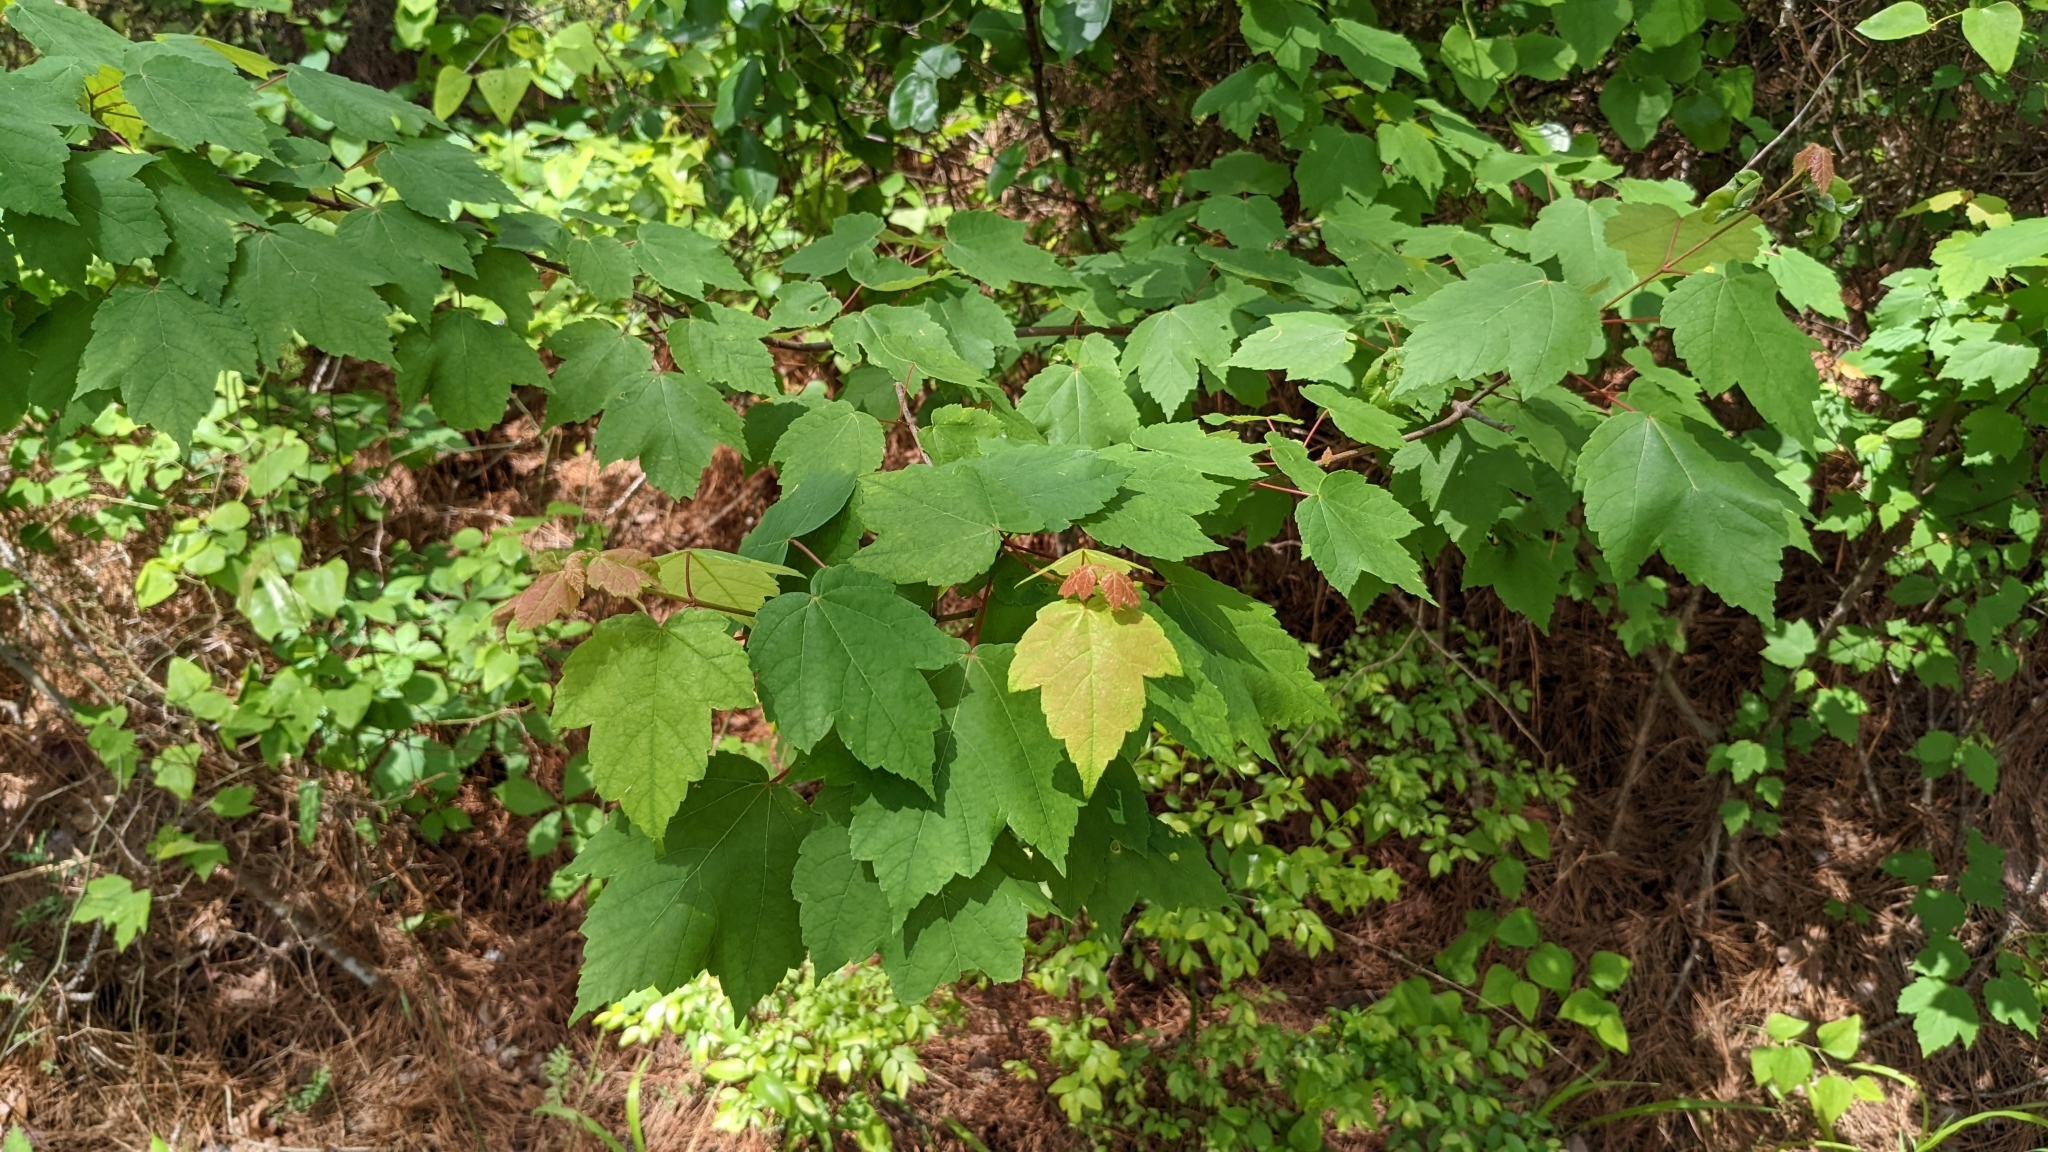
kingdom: Plantae
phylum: Tracheophyta
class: Magnoliopsida
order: Sapindales
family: Sapindaceae
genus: Acer
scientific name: Acer rubrum
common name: Red maple
